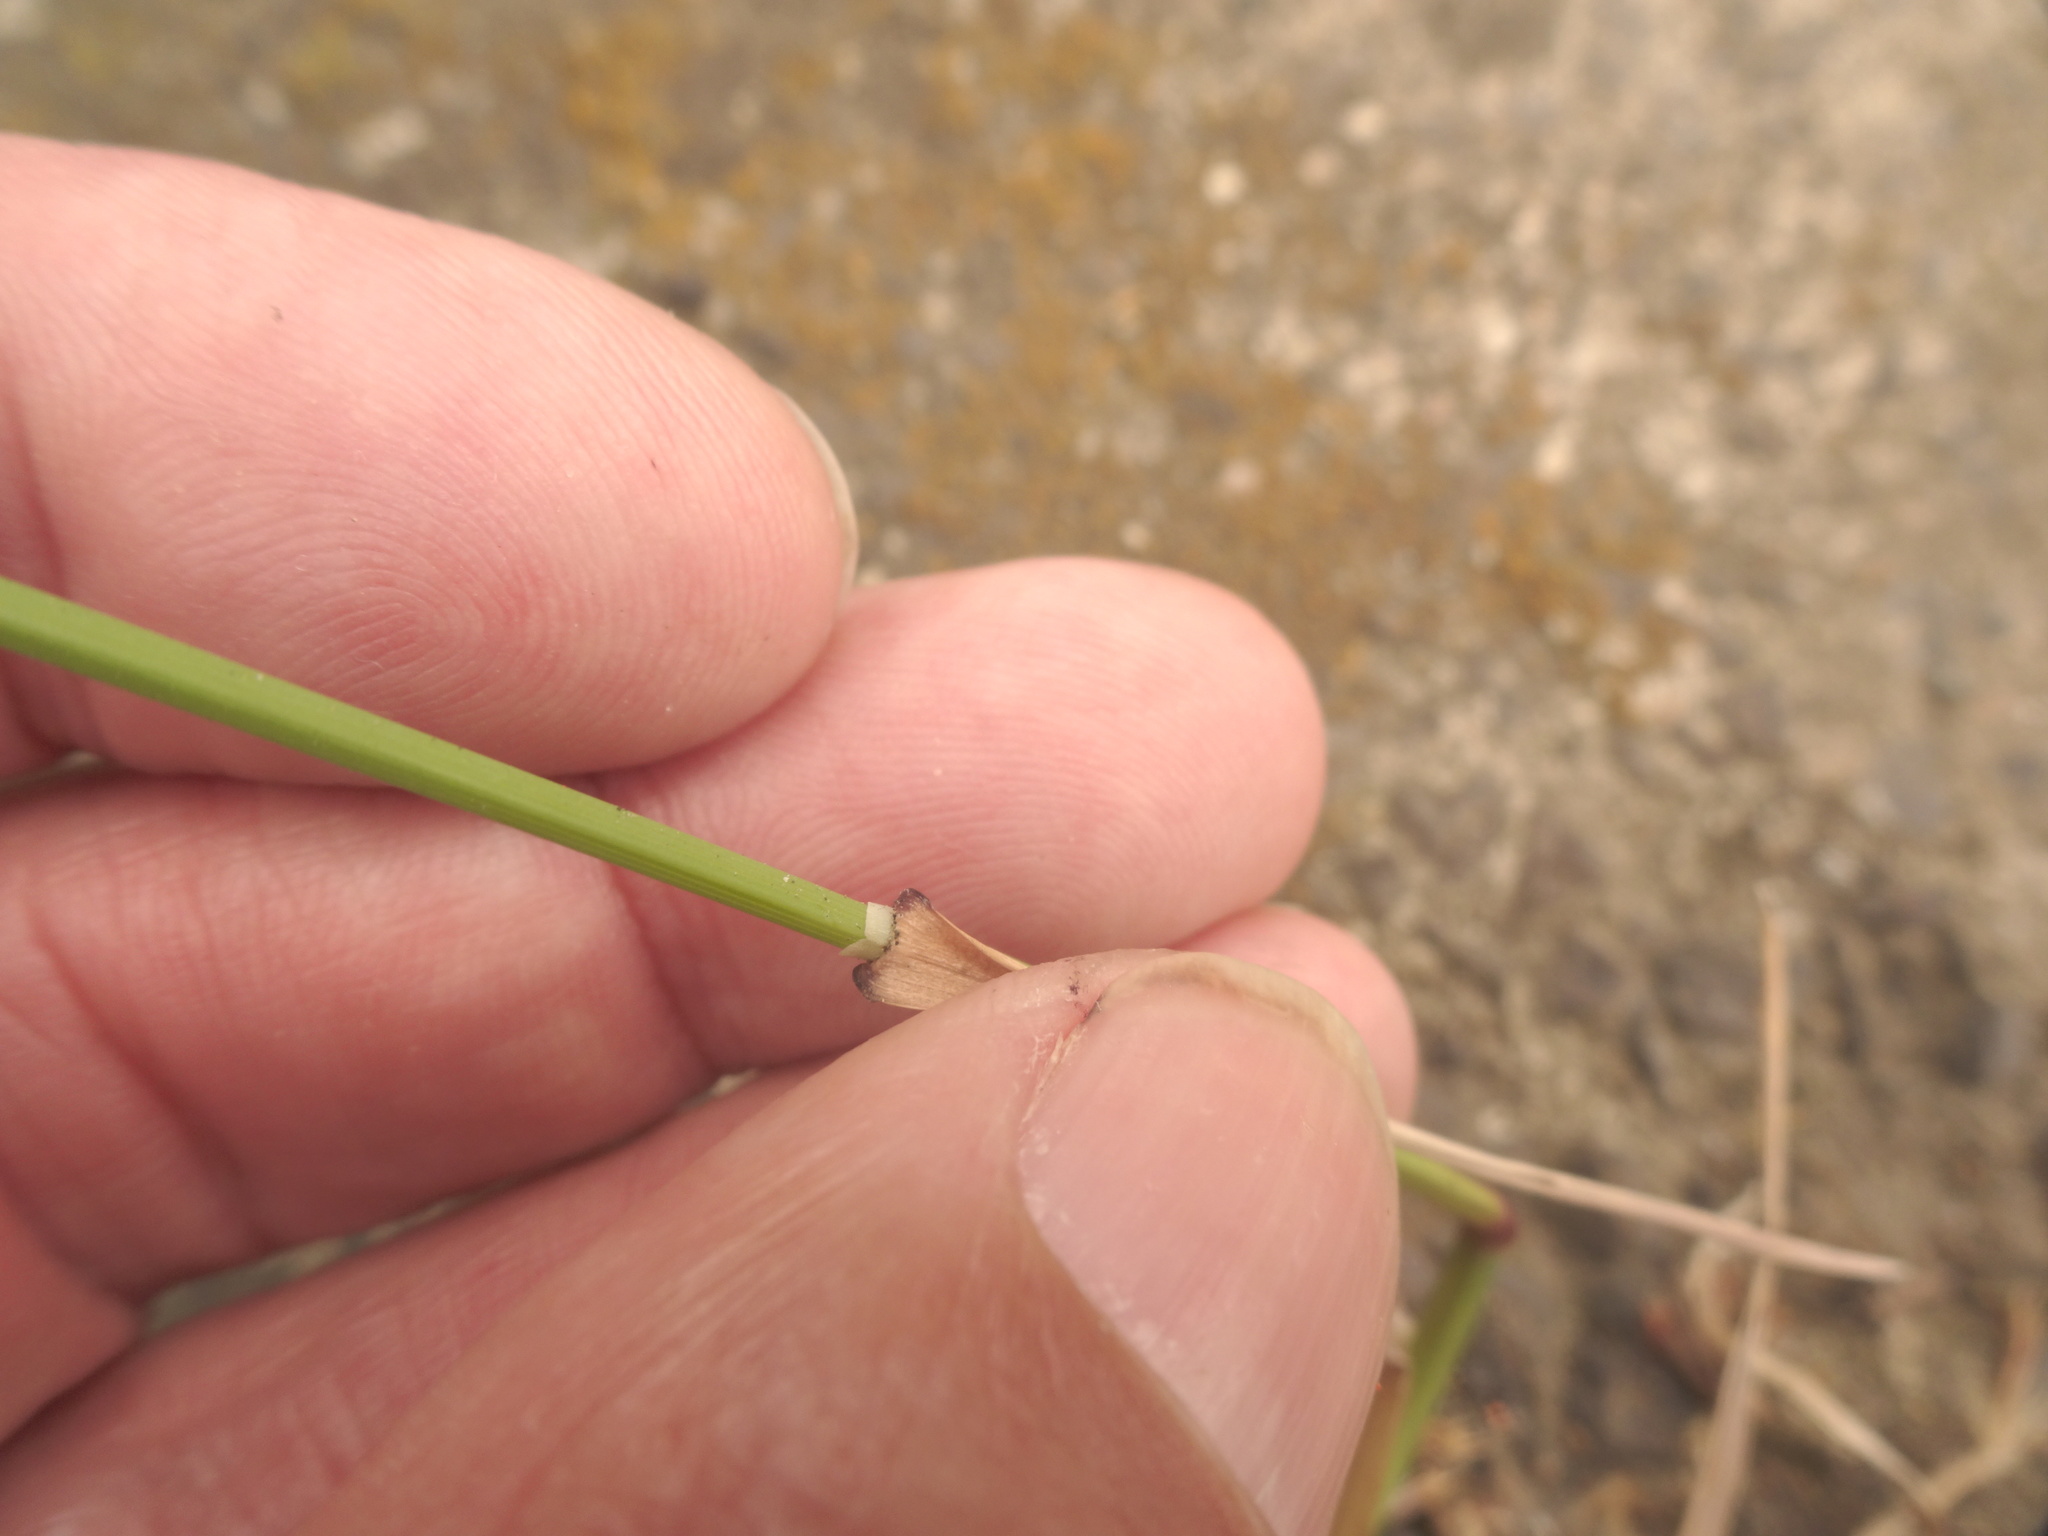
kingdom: Plantae
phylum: Tracheophyta
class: Liliopsida
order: Poales
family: Poaceae
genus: Poa
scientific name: Poa compressa
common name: Canada bluegrass
